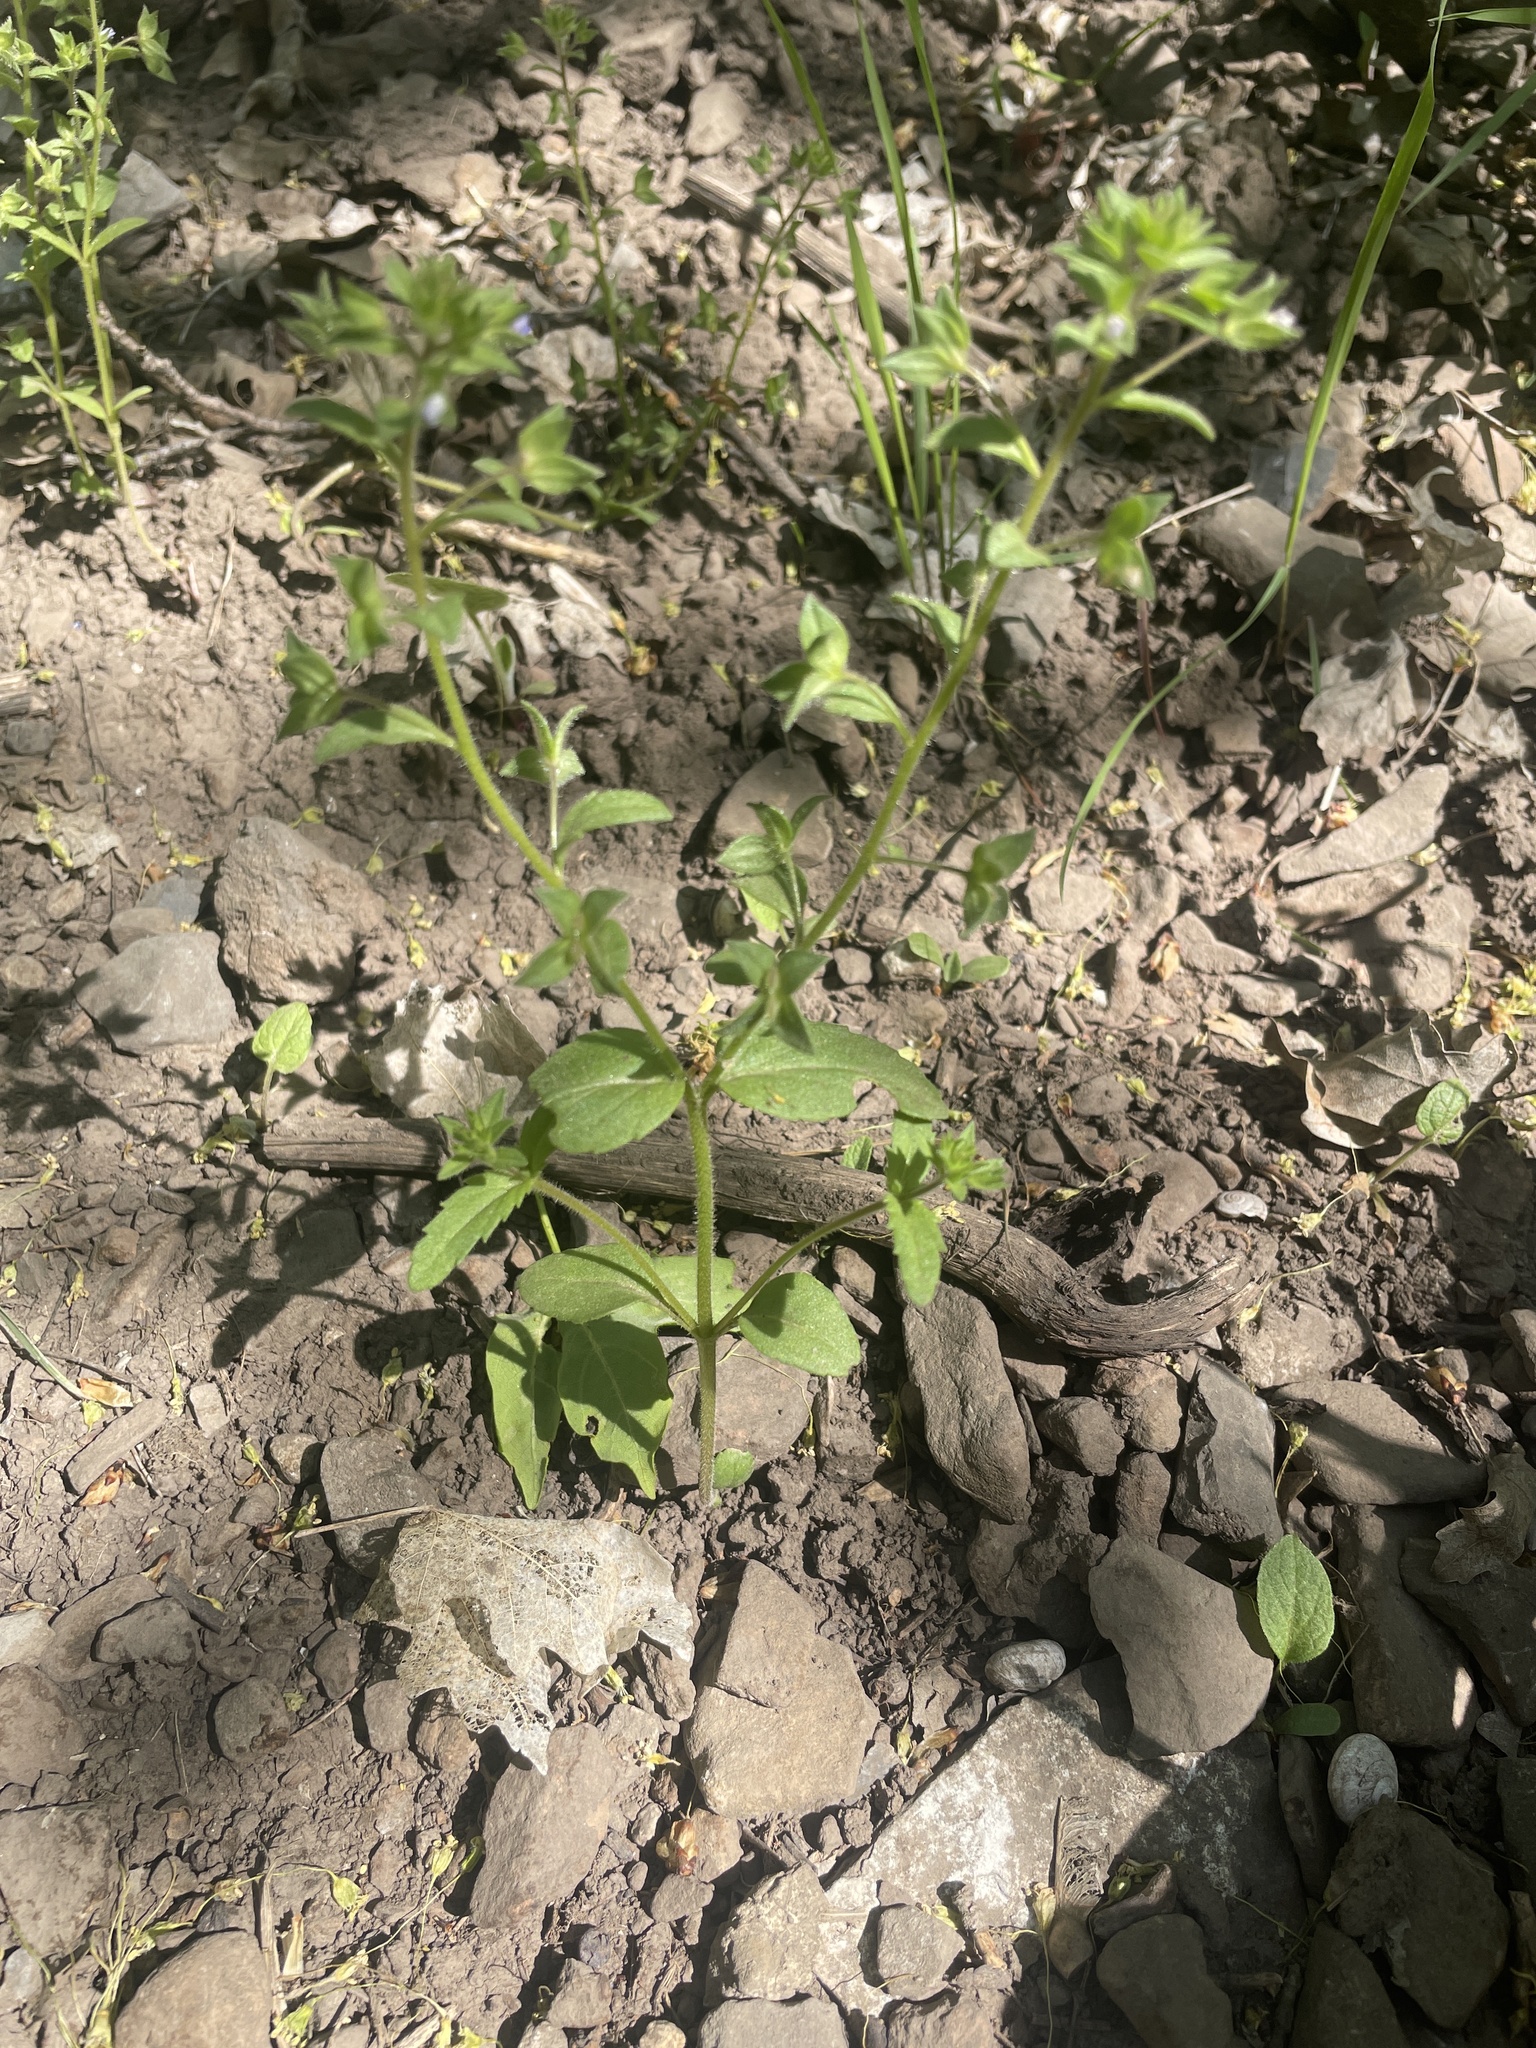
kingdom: Plantae
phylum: Tracheophyta
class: Magnoliopsida
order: Lamiales
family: Plantaginaceae
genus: Veronica
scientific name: Veronica biloba
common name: Twolobe speedwell
